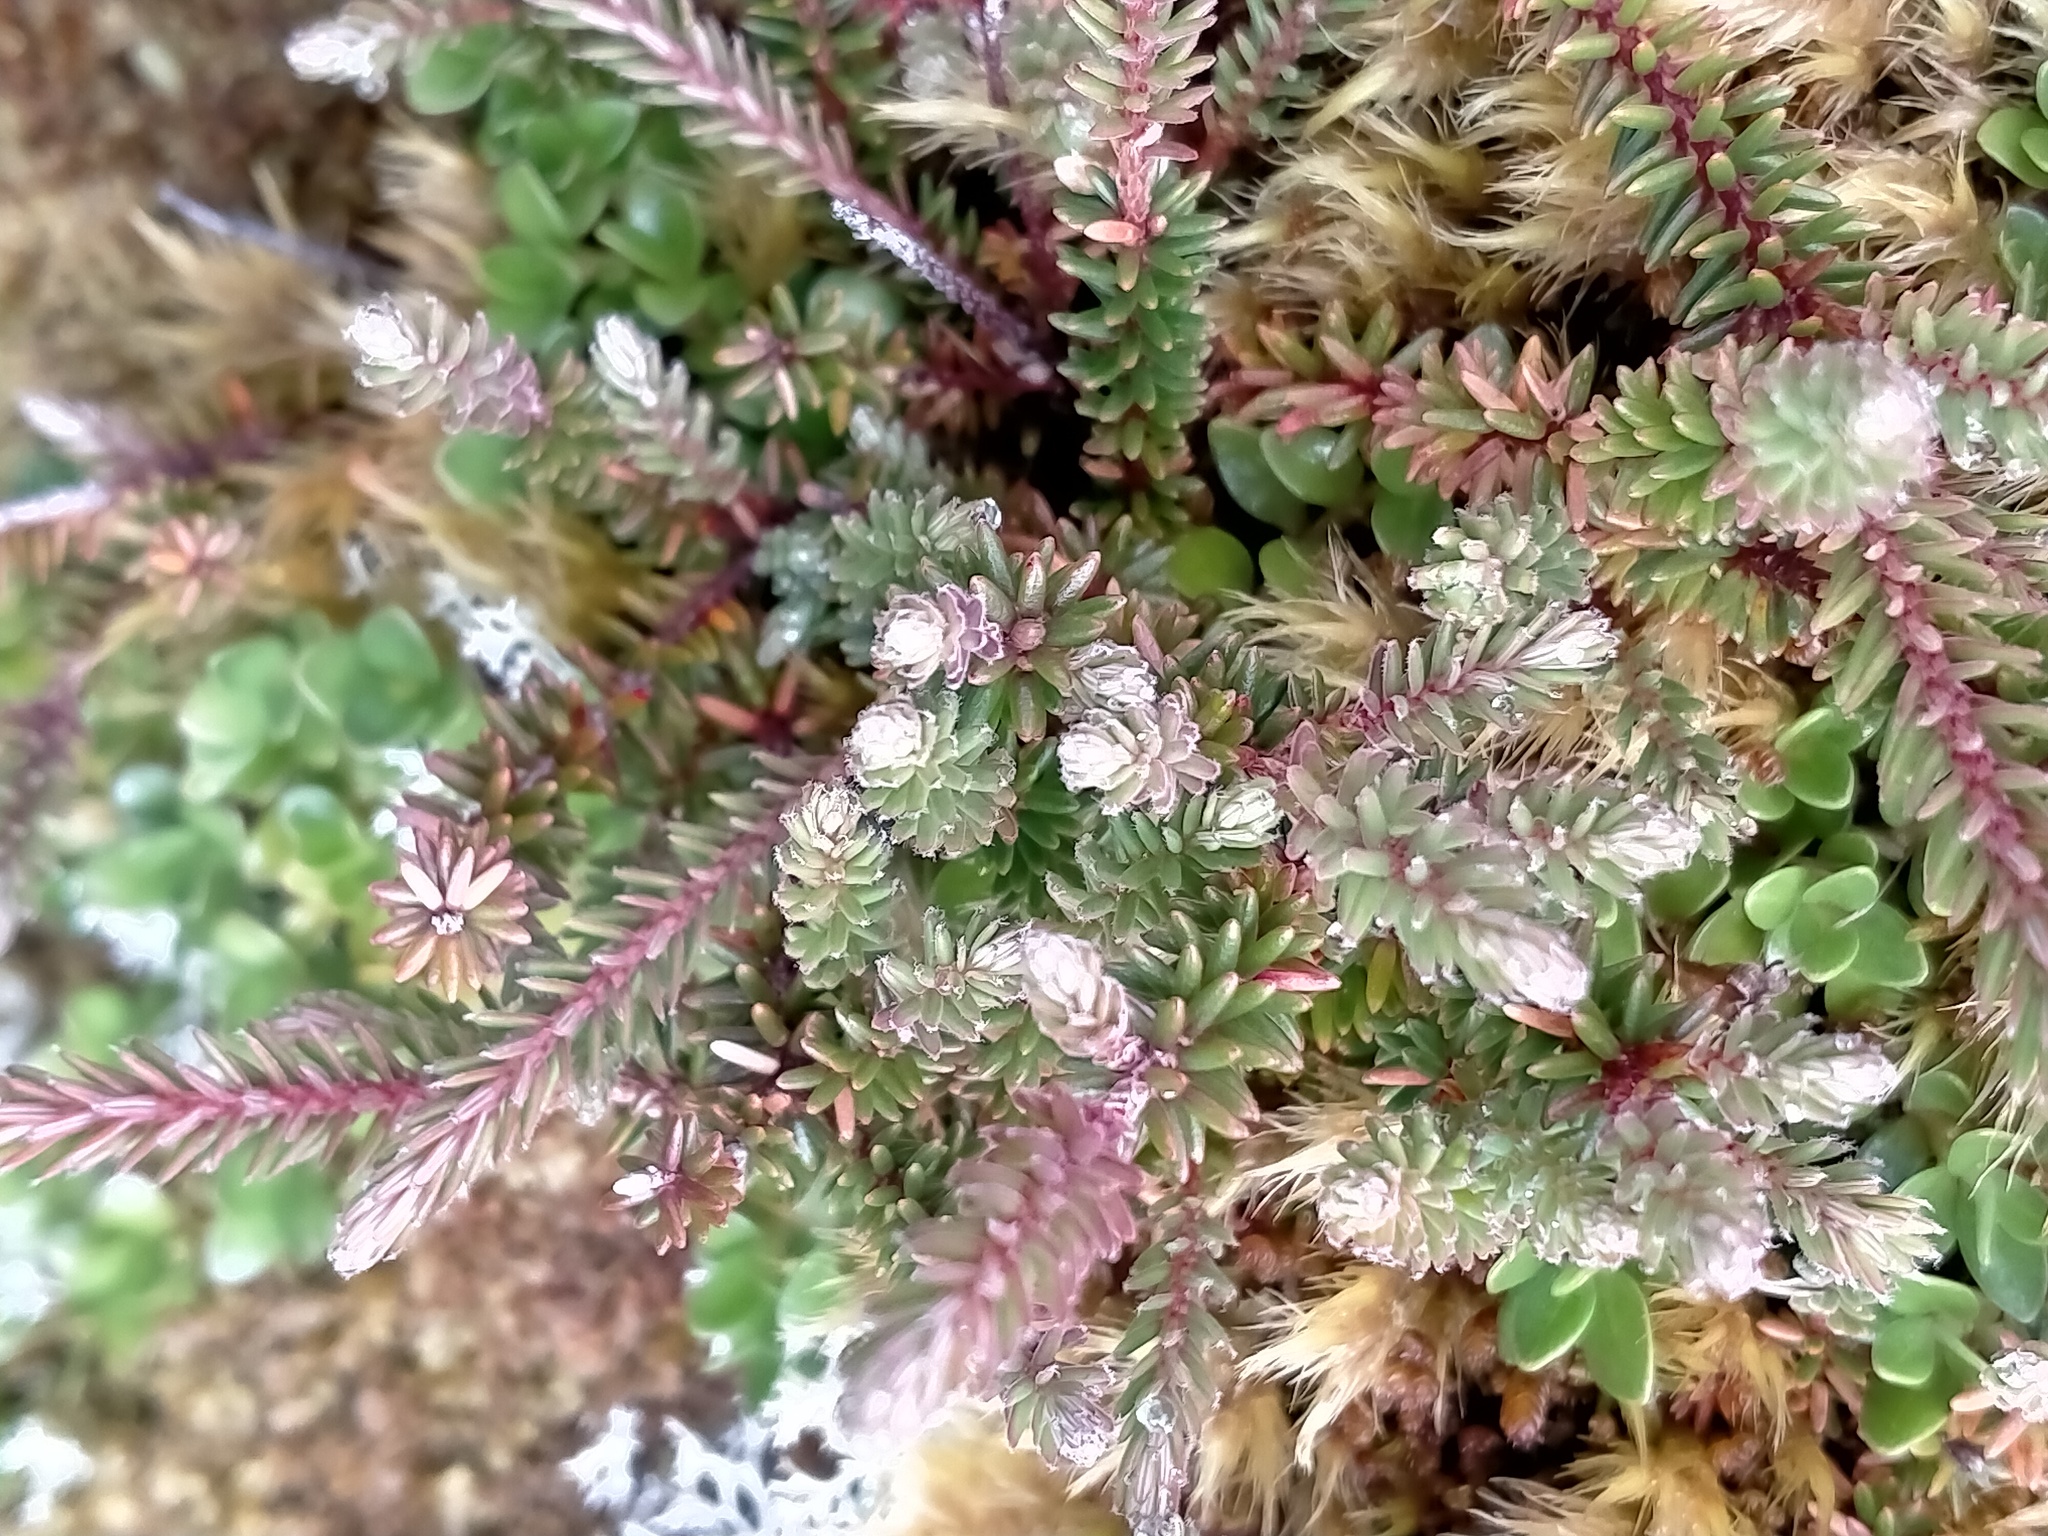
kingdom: Plantae
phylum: Tracheophyta
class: Magnoliopsida
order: Ericales
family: Ericaceae
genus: Androstoma
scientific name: Androstoma empetrifolia
